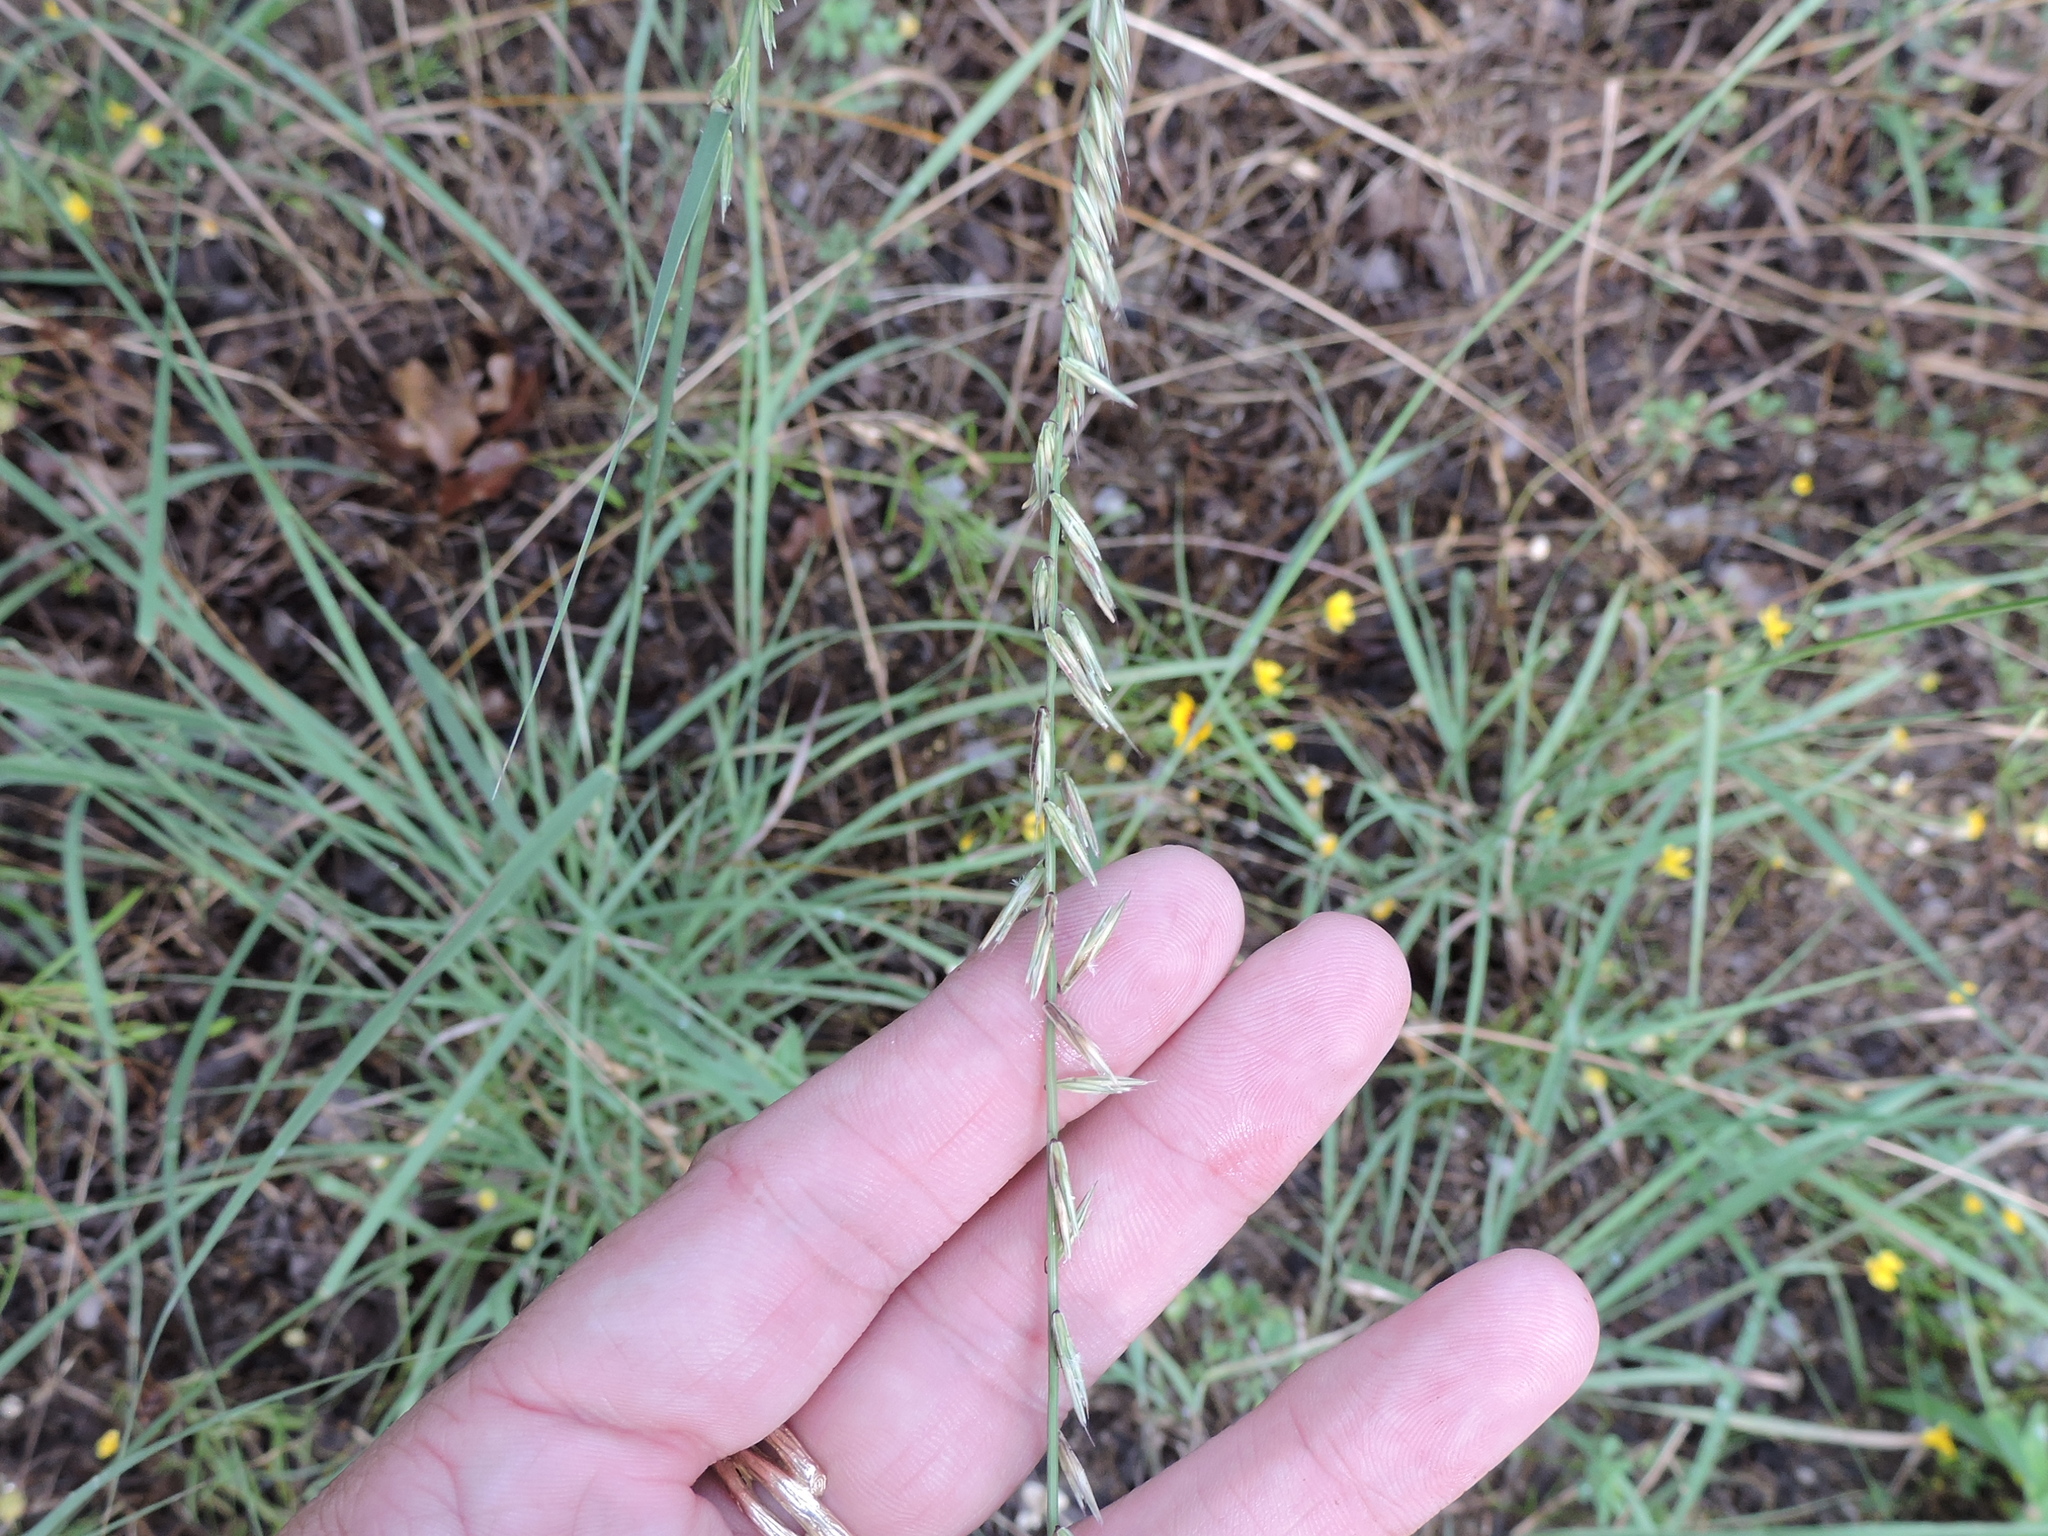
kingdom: Plantae
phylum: Tracheophyta
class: Liliopsida
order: Poales
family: Poaceae
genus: Bouteloua
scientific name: Bouteloua curtipendula
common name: Side-oats grama
